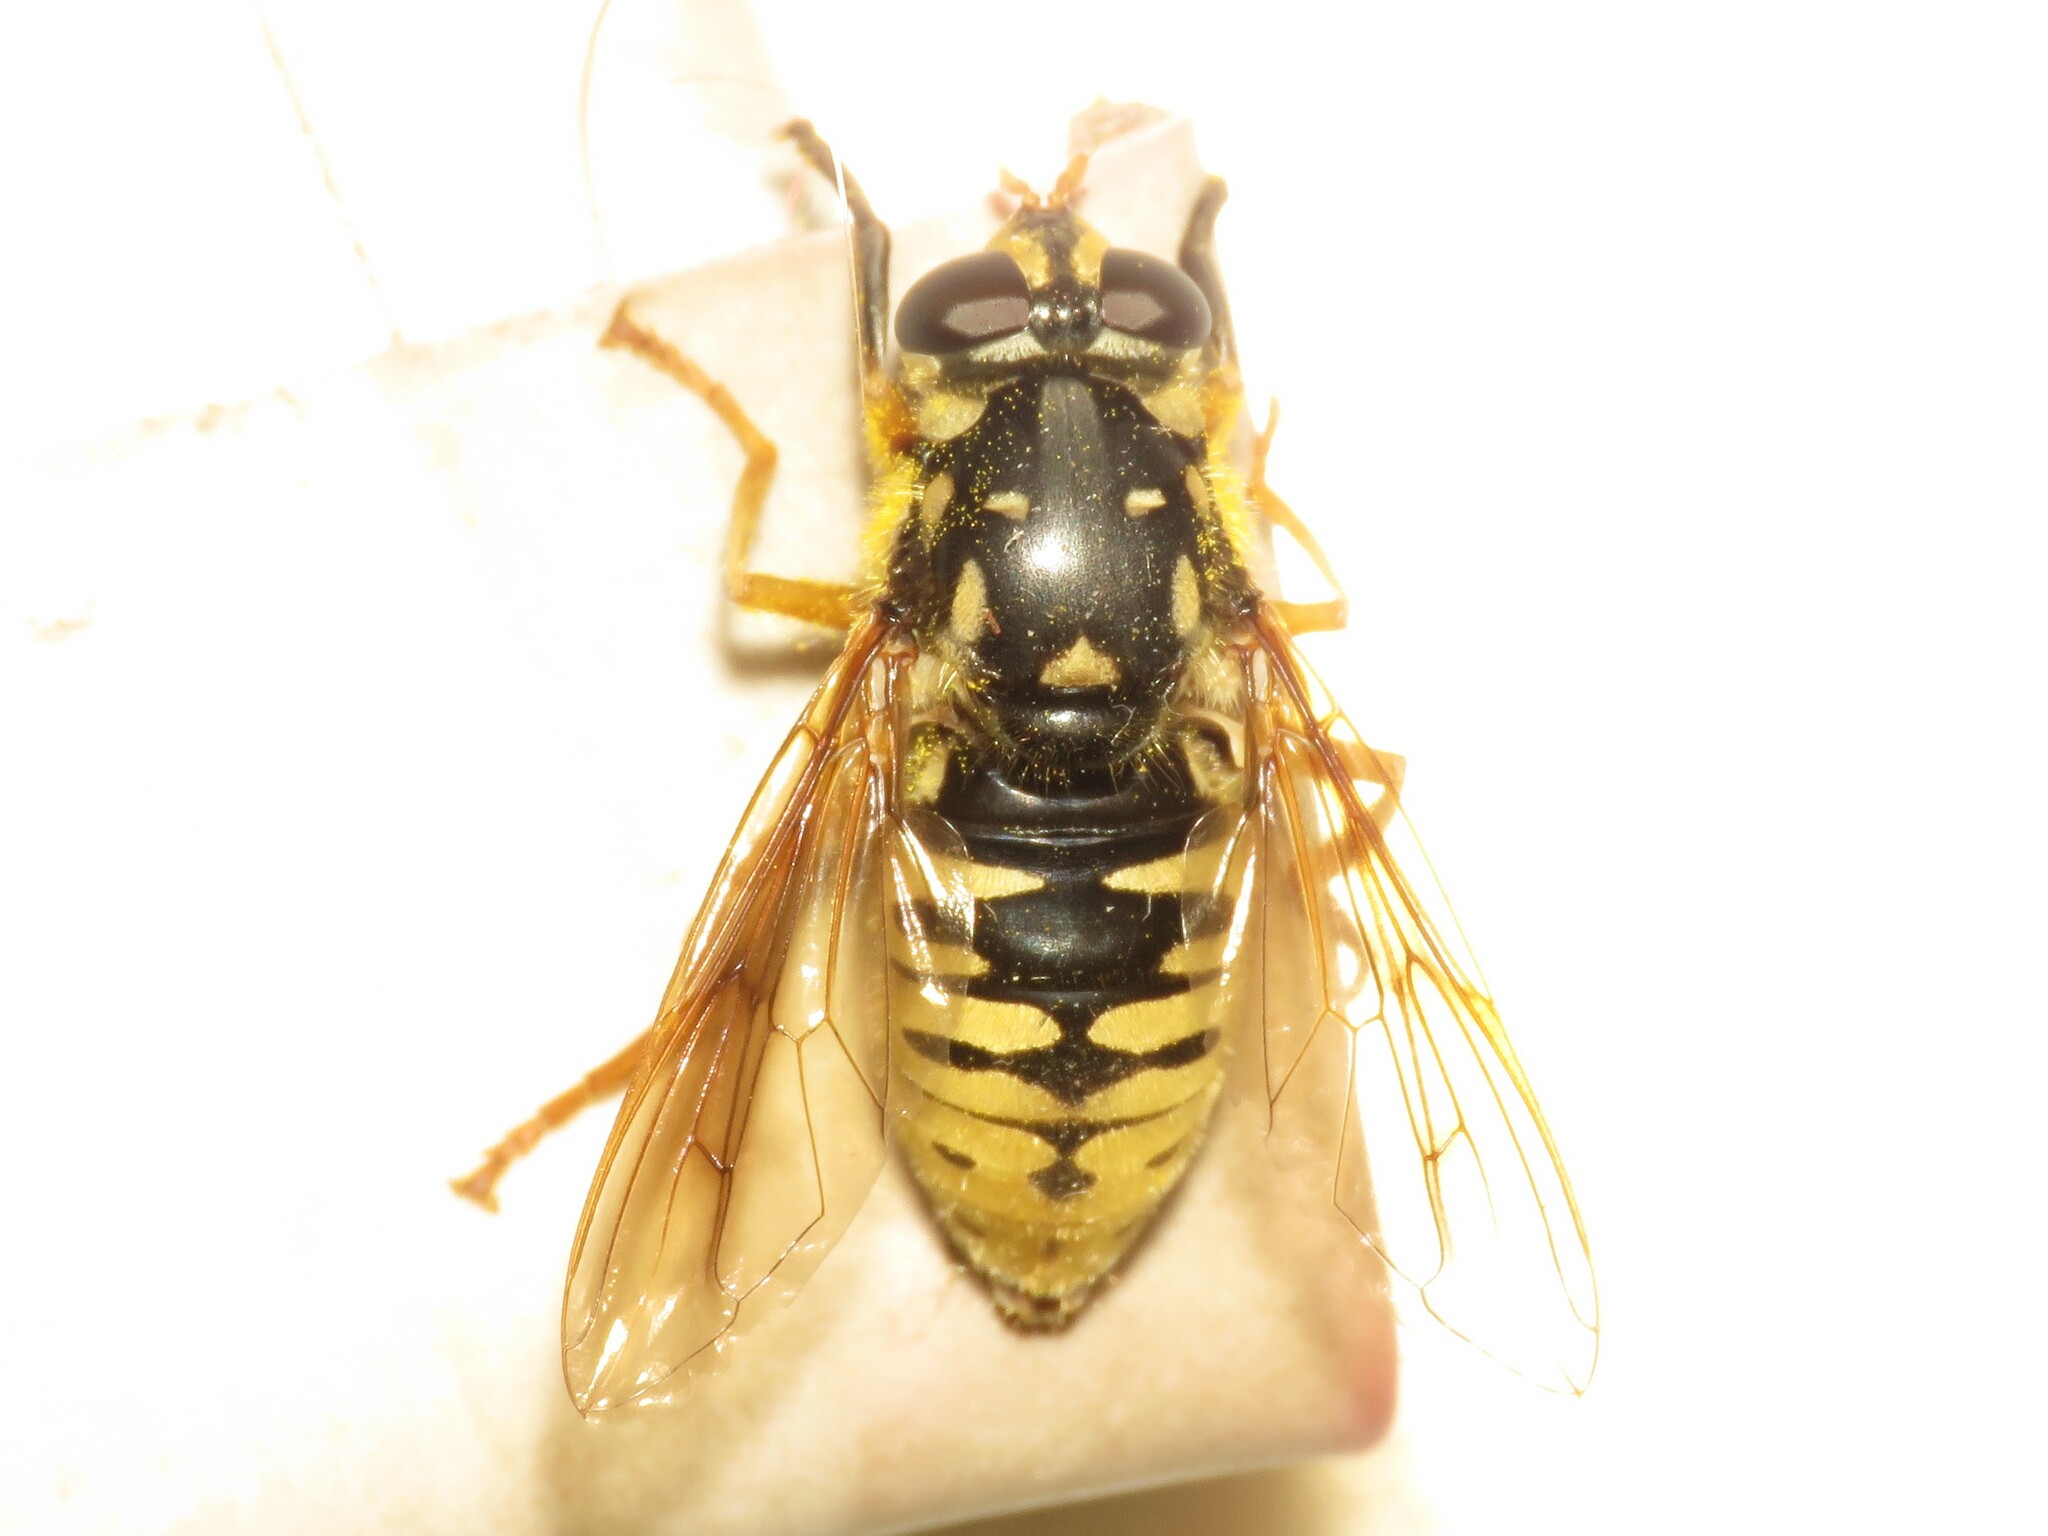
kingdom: Animalia
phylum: Arthropoda
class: Insecta
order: Diptera
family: Syrphidae
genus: Temnostoma
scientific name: Temnostoma alternans
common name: Wasp-like falsehorn
